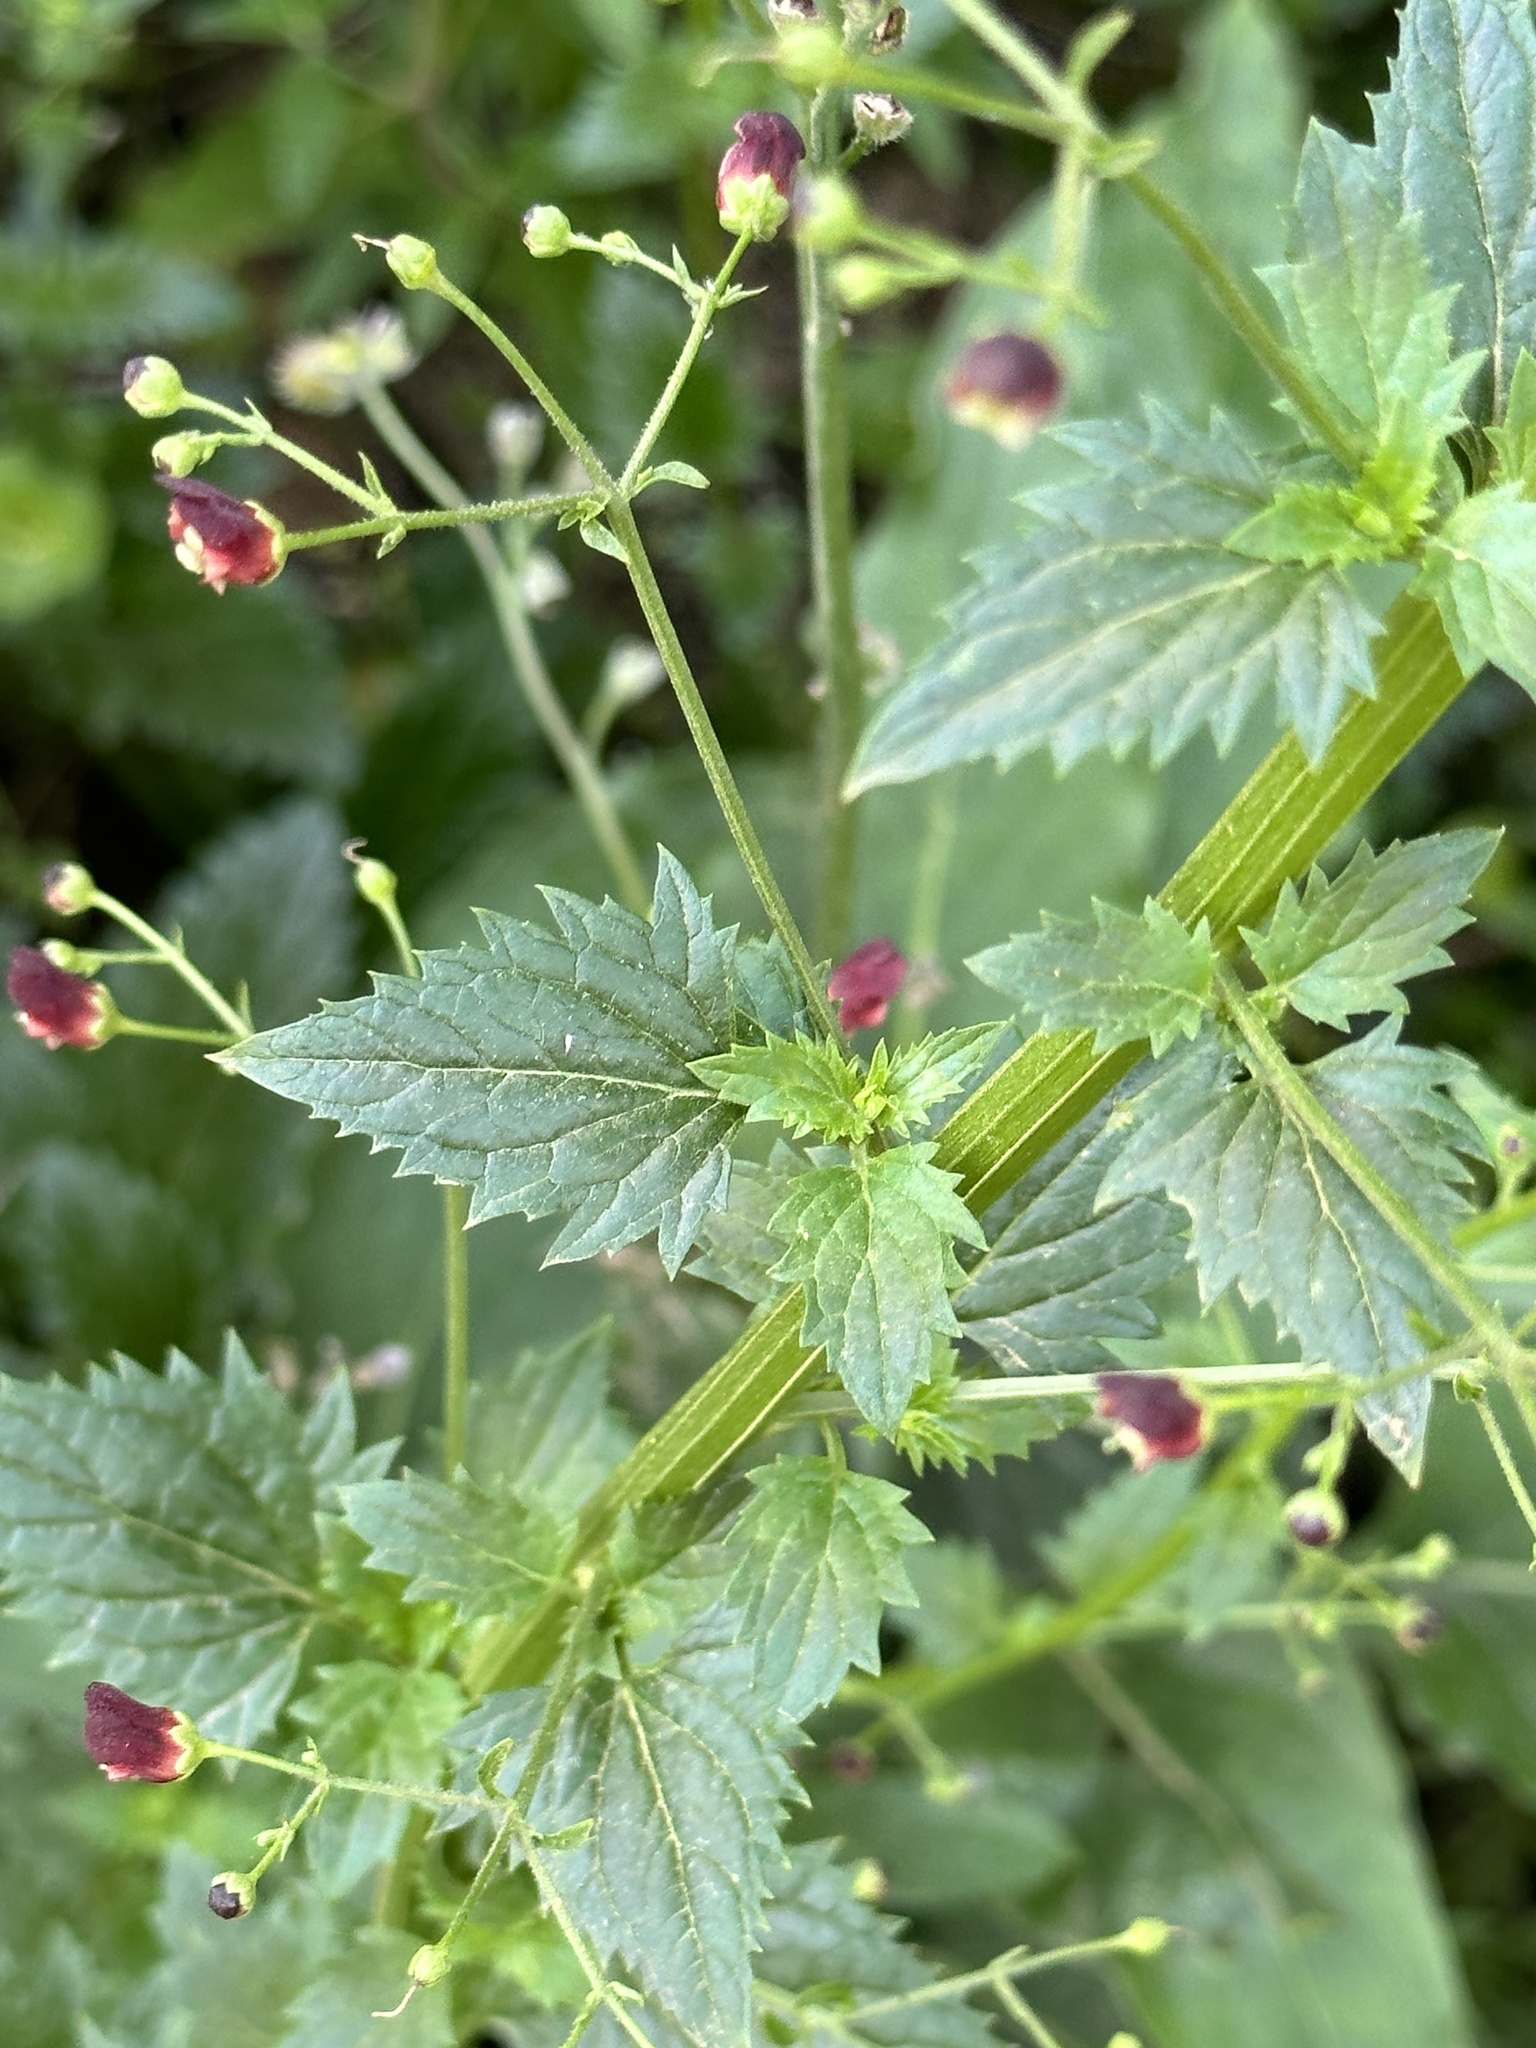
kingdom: Plantae
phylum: Tracheophyta
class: Magnoliopsida
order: Lamiales
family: Scrophulariaceae
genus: Scrophularia
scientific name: Scrophularia californica
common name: California figwort
